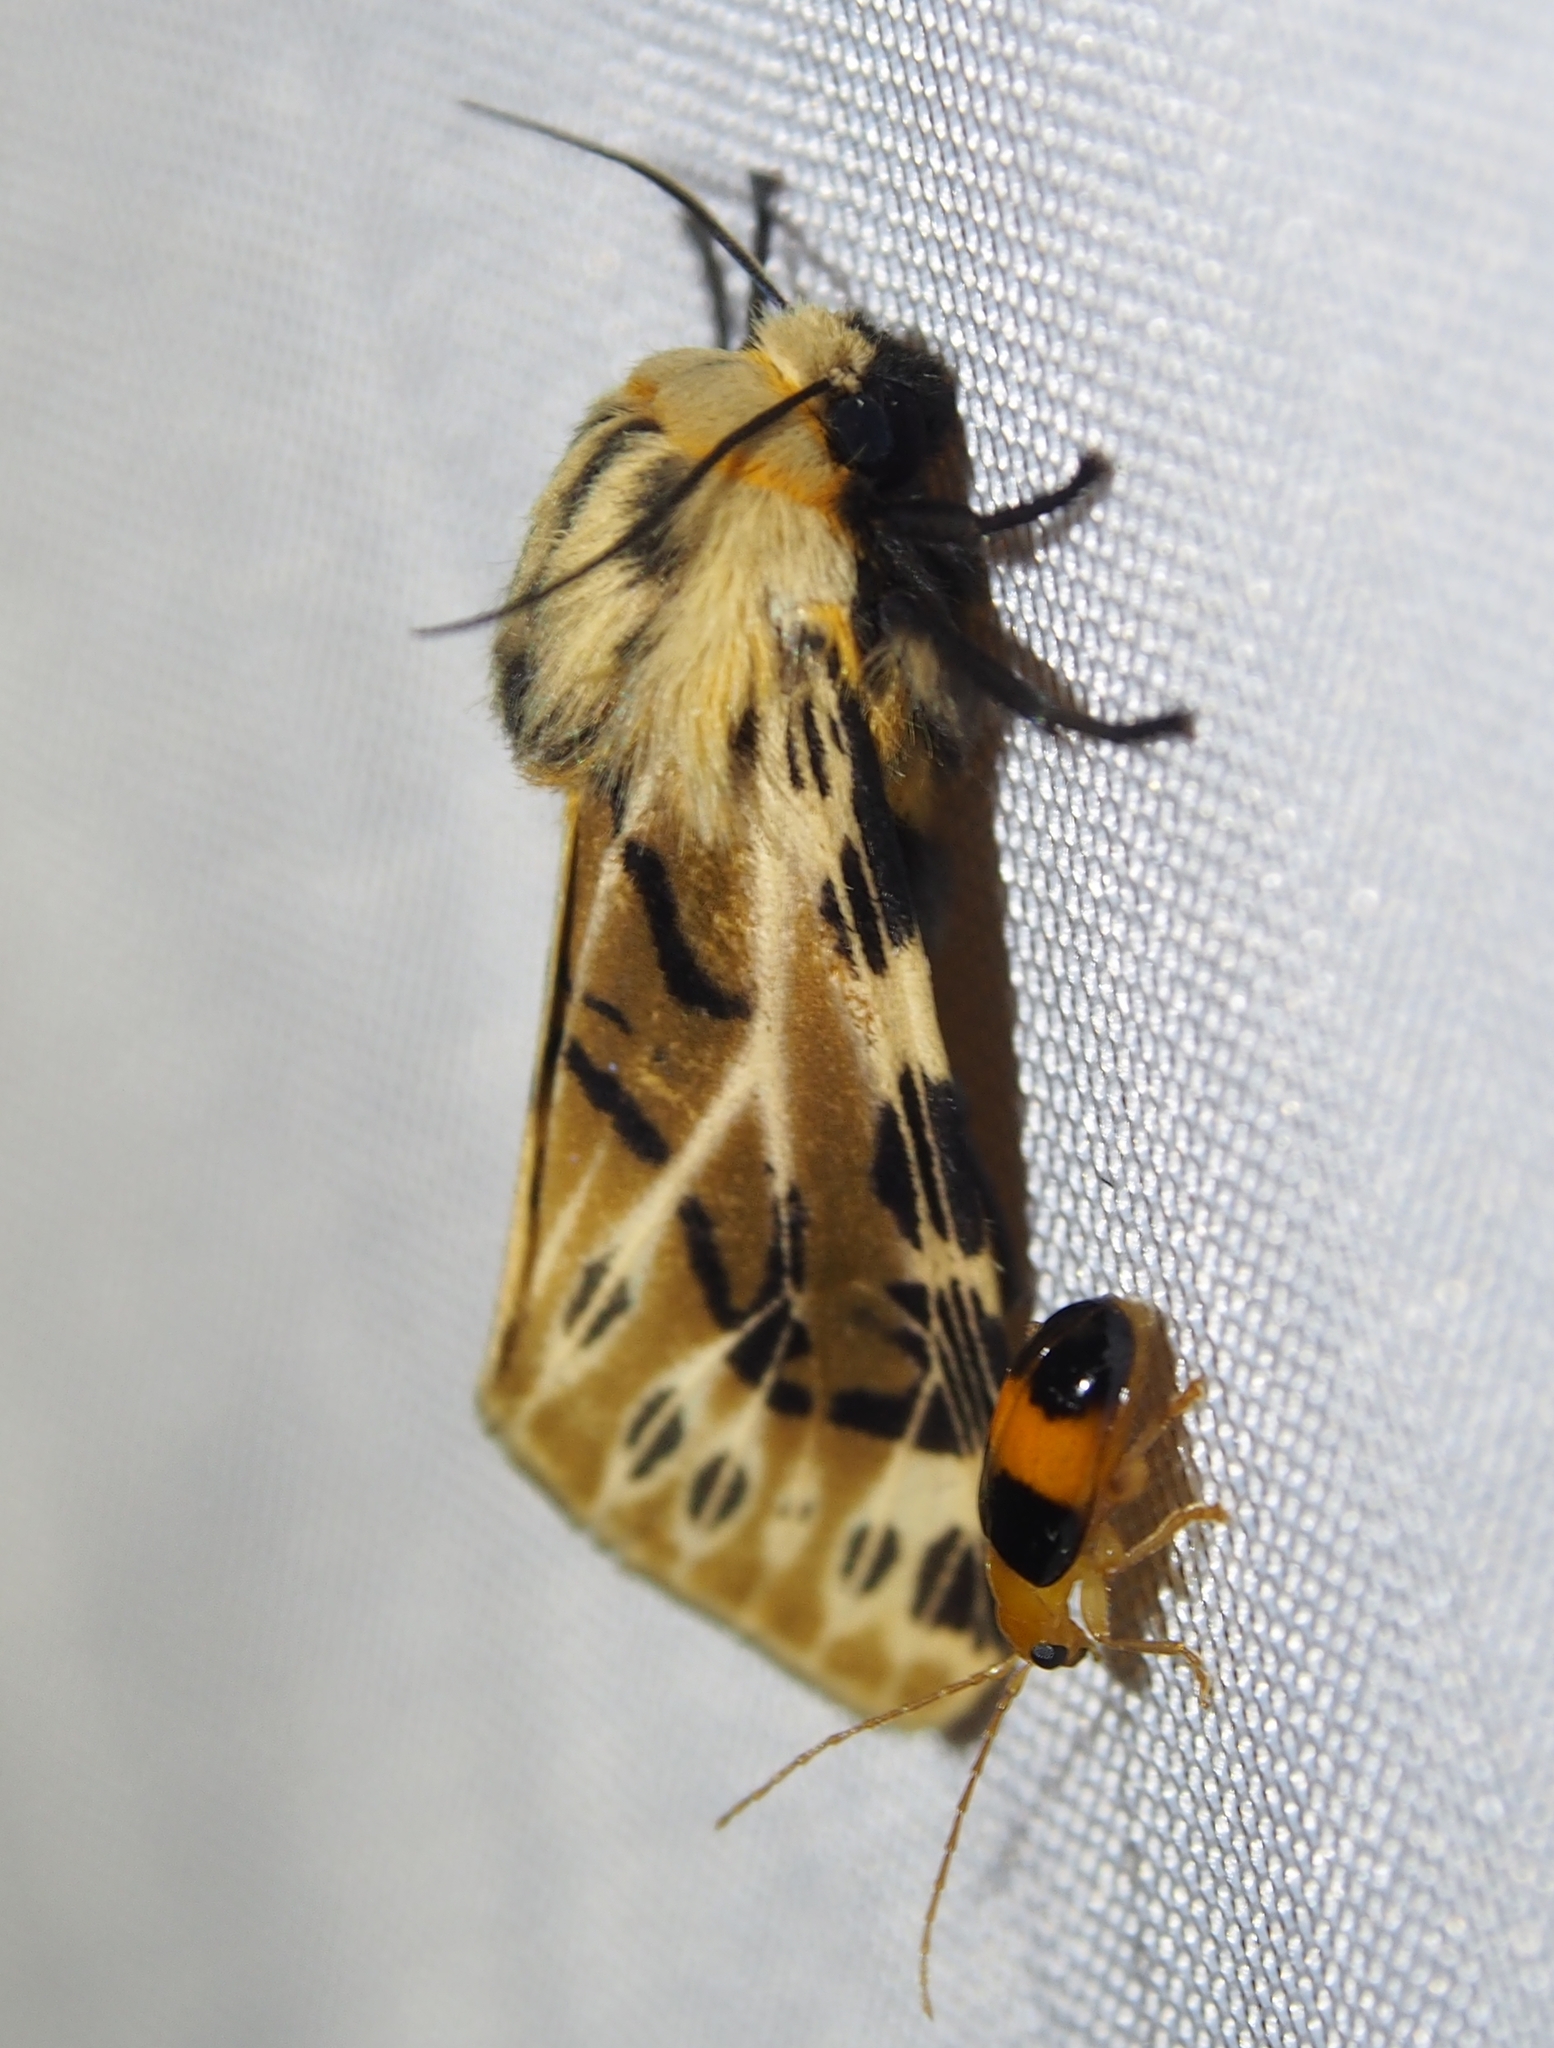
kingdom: Animalia
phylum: Arthropoda
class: Insecta
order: Lepidoptera
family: Erebidae
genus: Hypercompe
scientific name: Hypercompe nemophila
